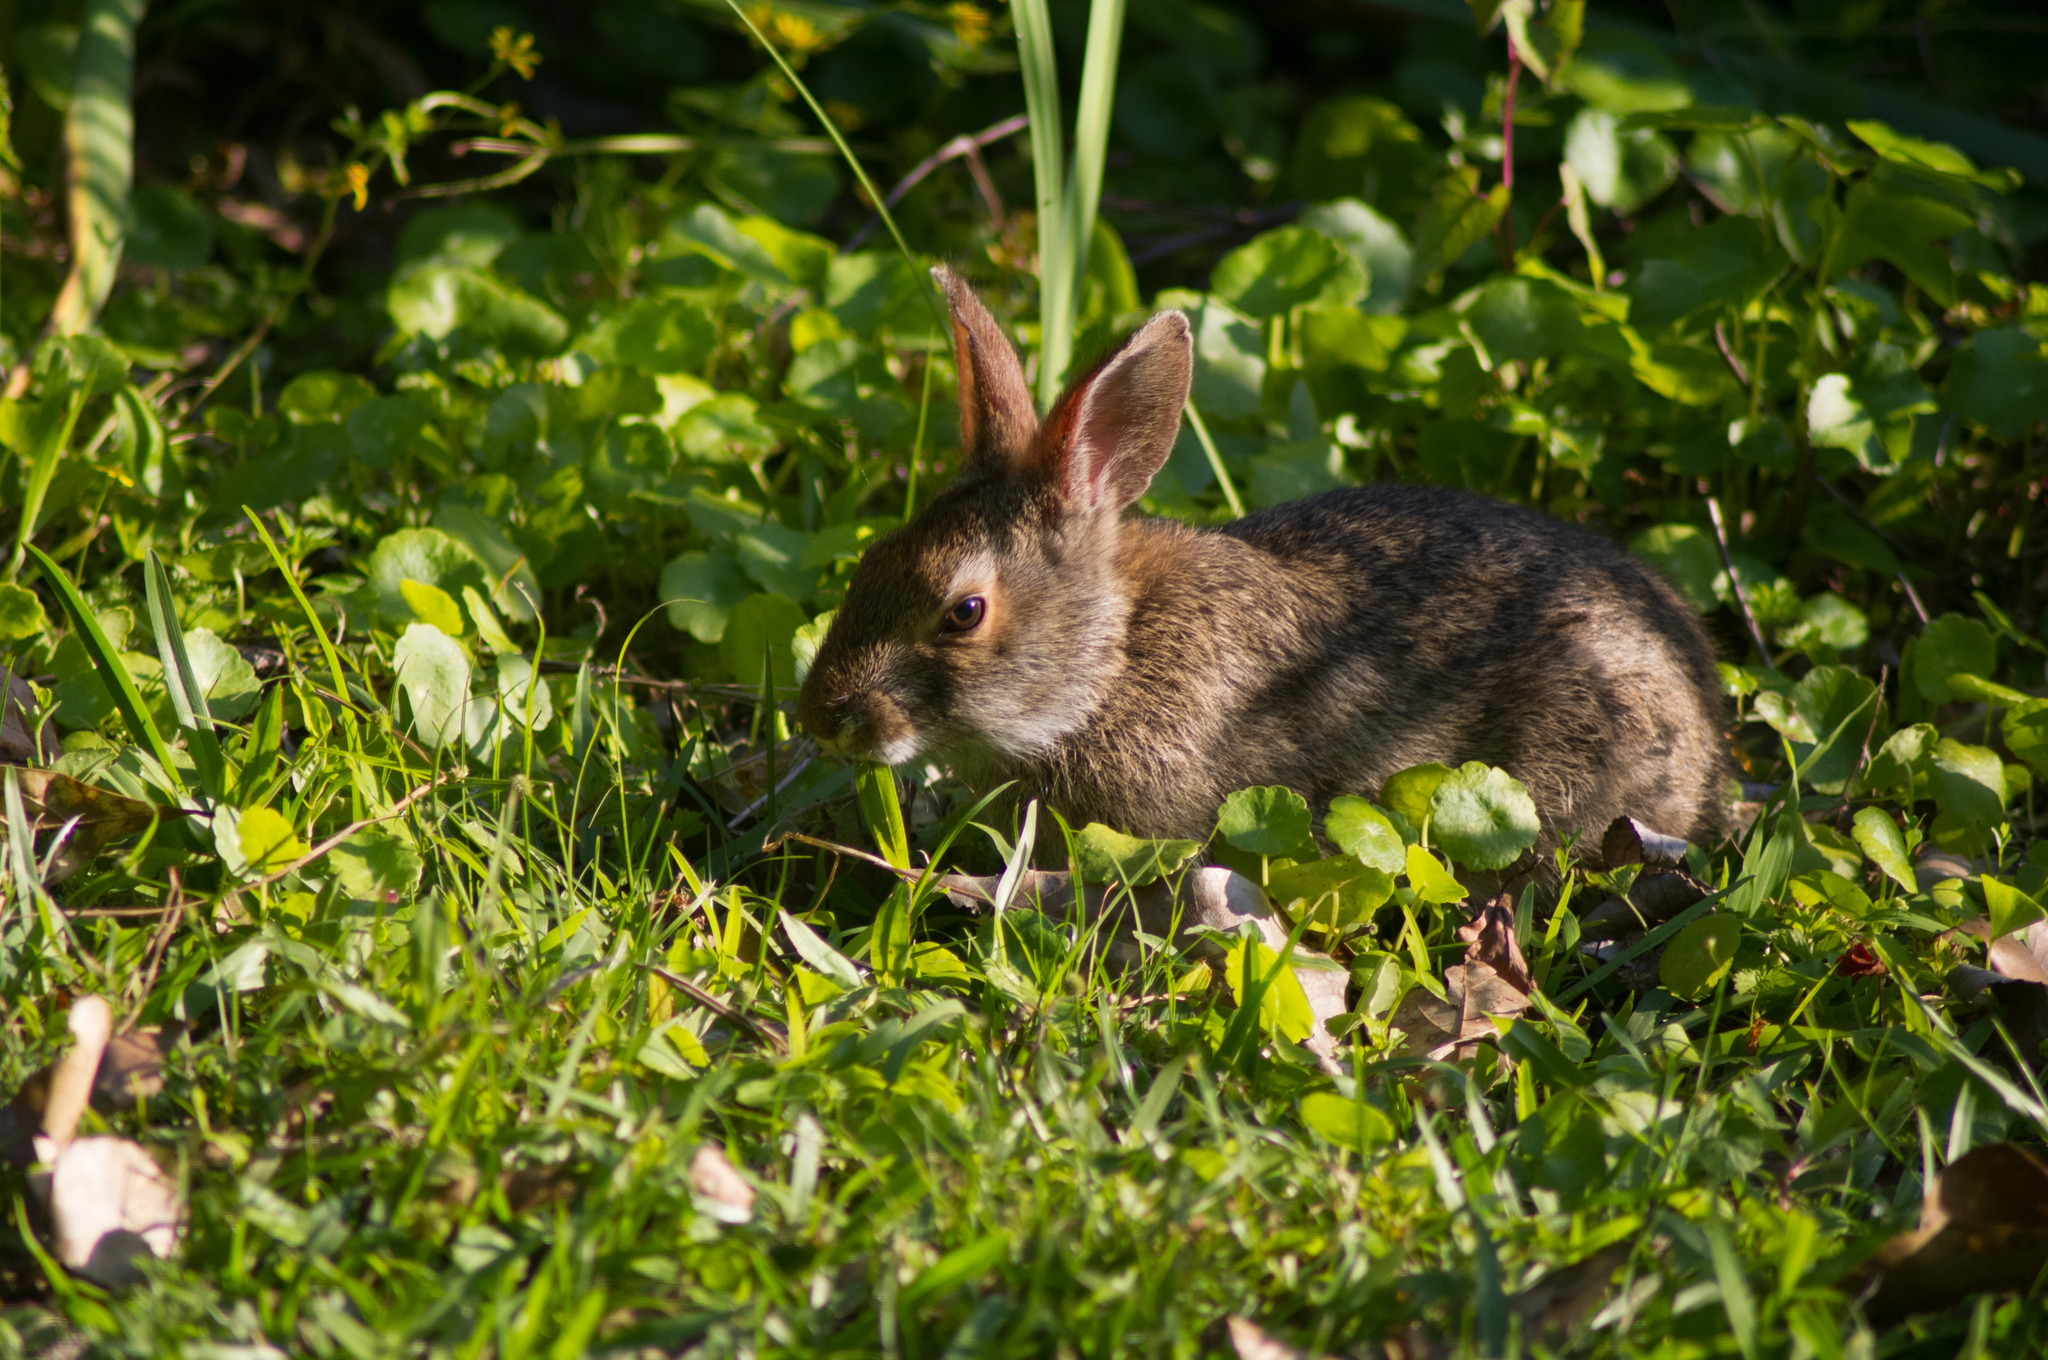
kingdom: Animalia
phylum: Chordata
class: Mammalia
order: Lagomorpha
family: Leporidae
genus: Sylvilagus
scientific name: Sylvilagus aquaticus
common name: Swamp rabbit
